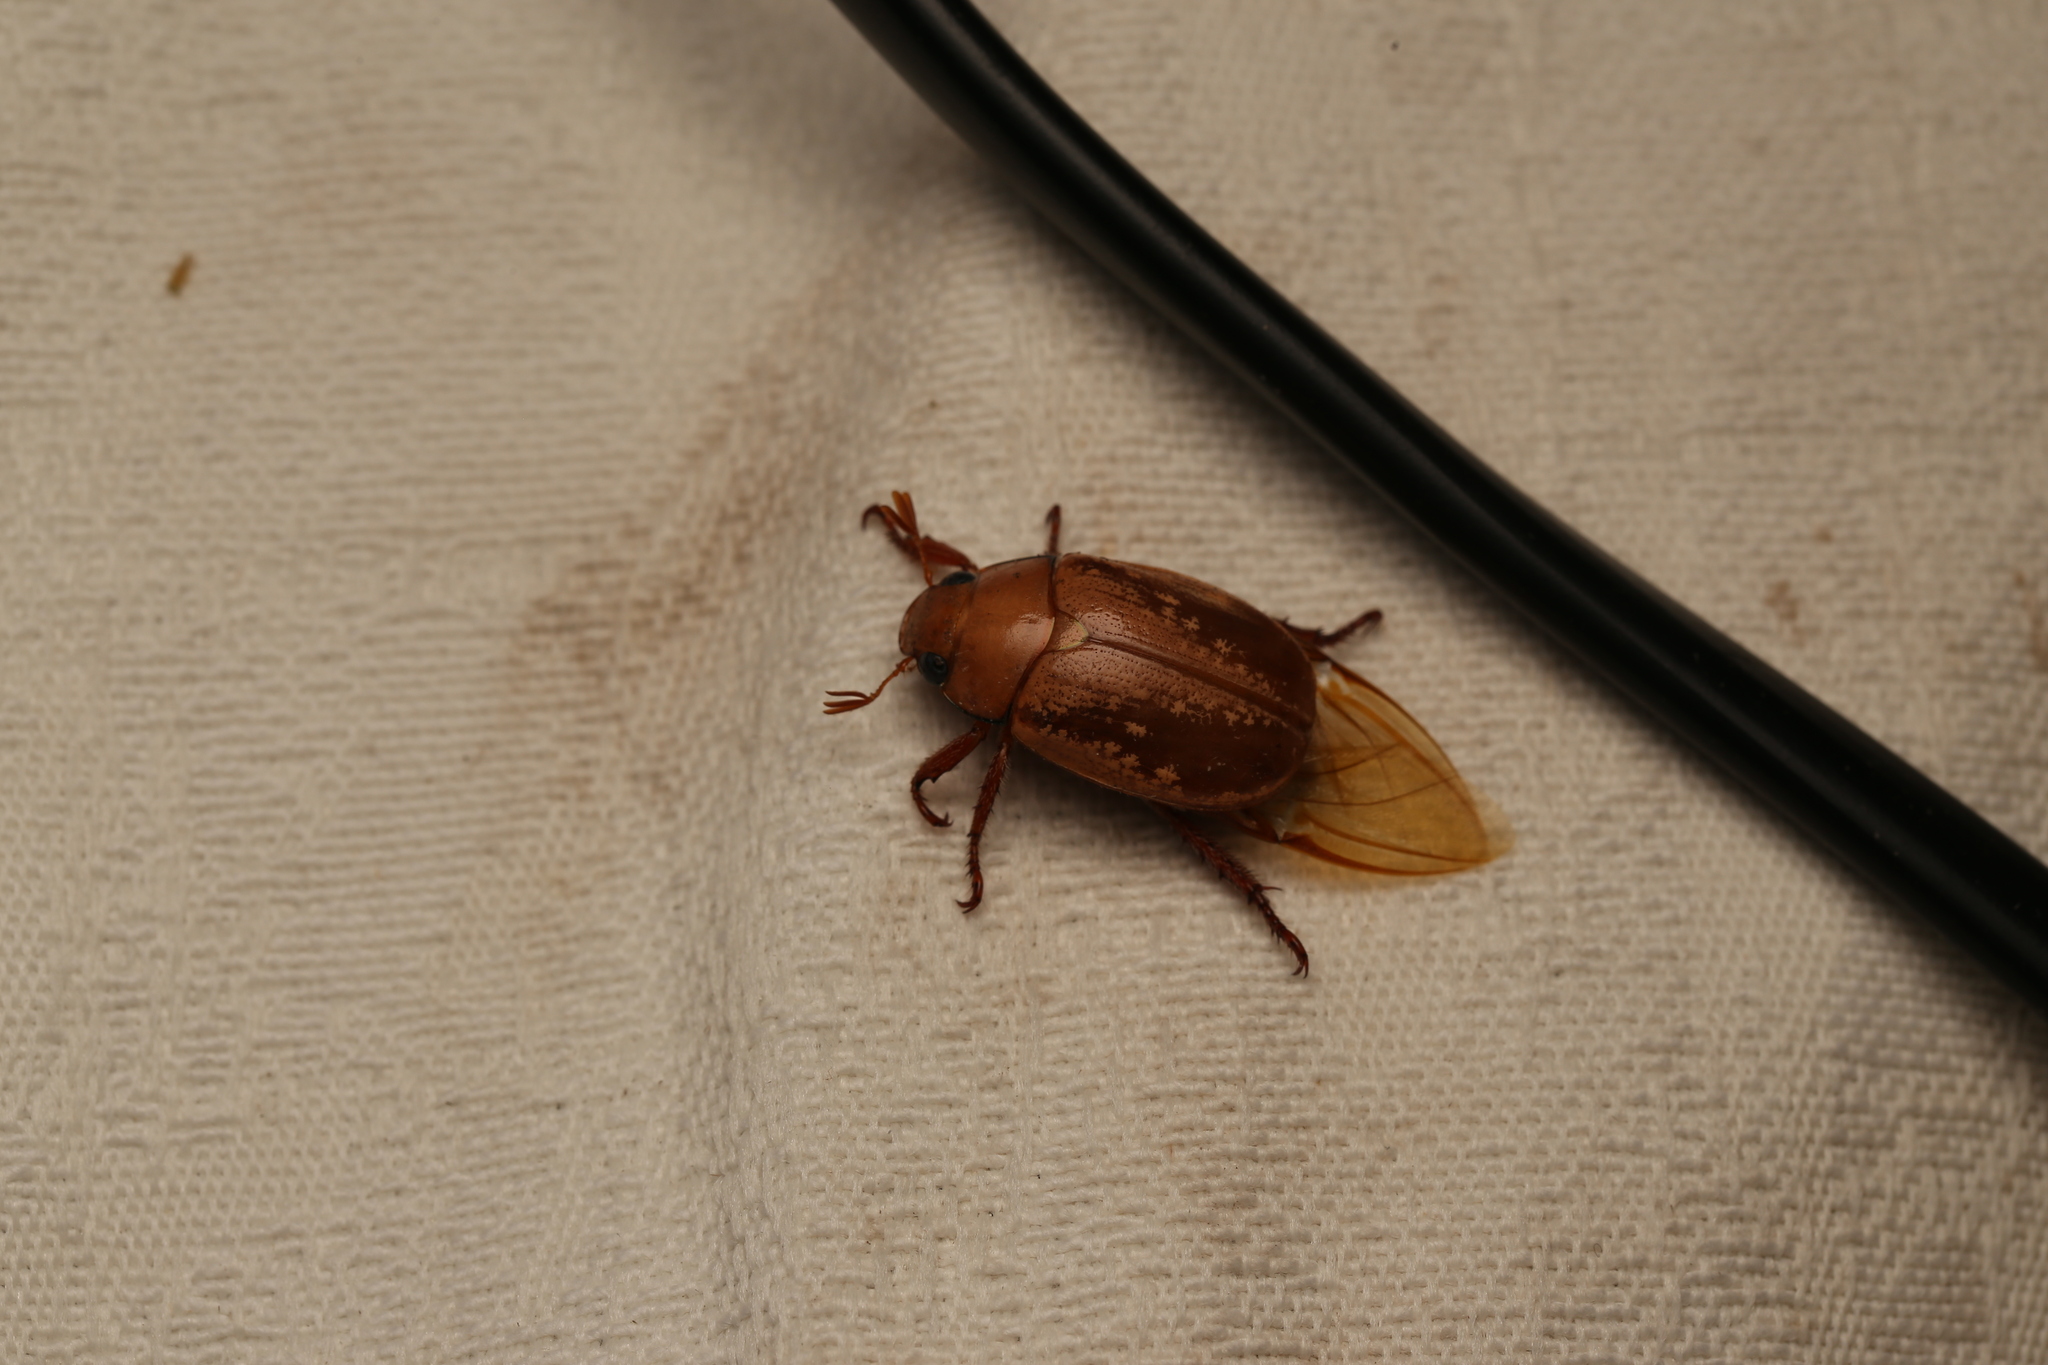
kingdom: Animalia
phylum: Arthropoda
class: Insecta
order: Coleoptera
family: Scarabaeidae
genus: Anoplognathus
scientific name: Anoplognathus concolor
